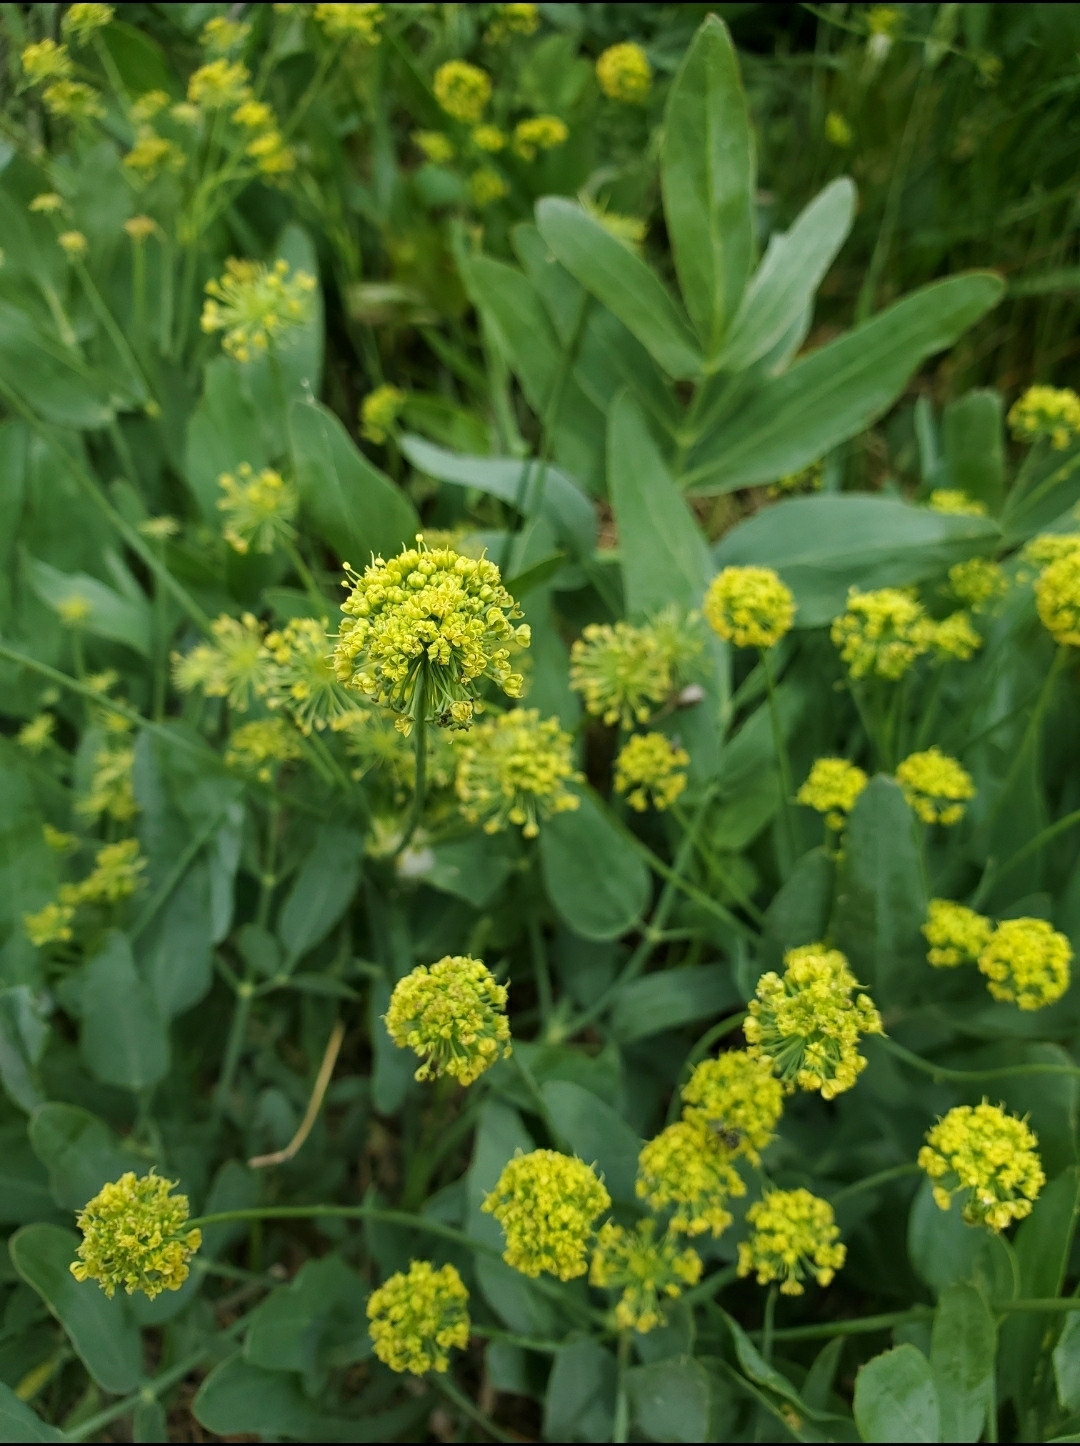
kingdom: Plantae
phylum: Tracheophyta
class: Magnoliopsida
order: Apiales
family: Apiaceae
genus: Lomatium
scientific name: Lomatium nudicaule
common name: Pestle lomatium
